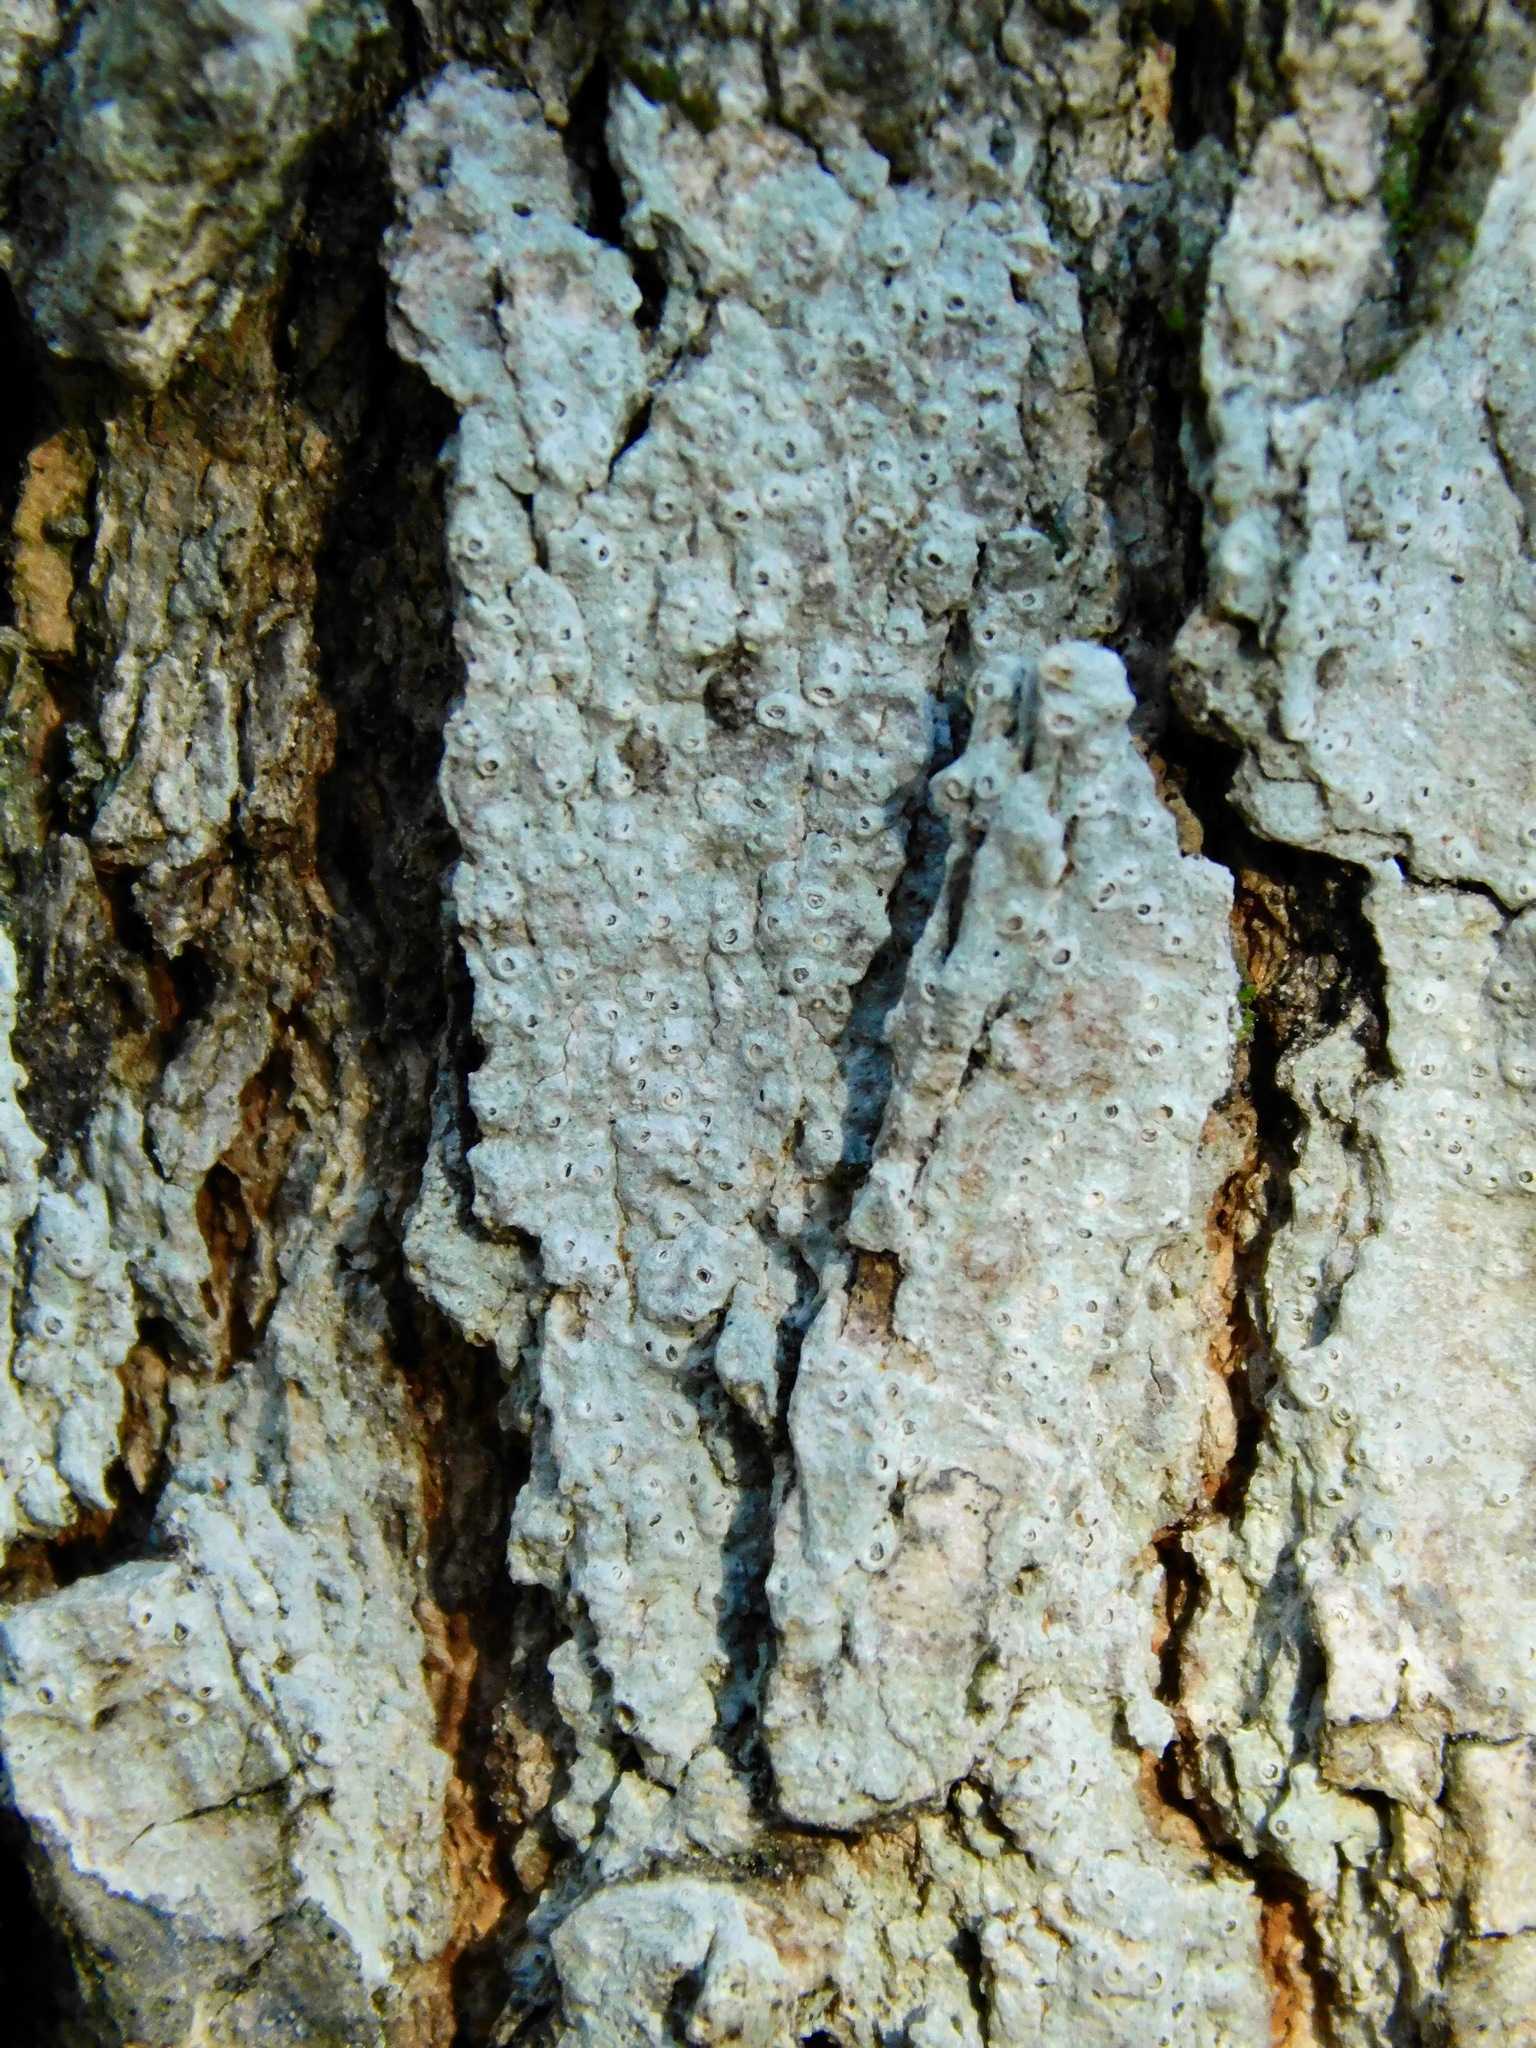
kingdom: Fungi
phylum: Ascomycota
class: Lecanoromycetes
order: Ostropales
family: Graphidaceae
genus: Thelotrema
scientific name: Thelotrema subtile
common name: Delicate barnacles lichen
